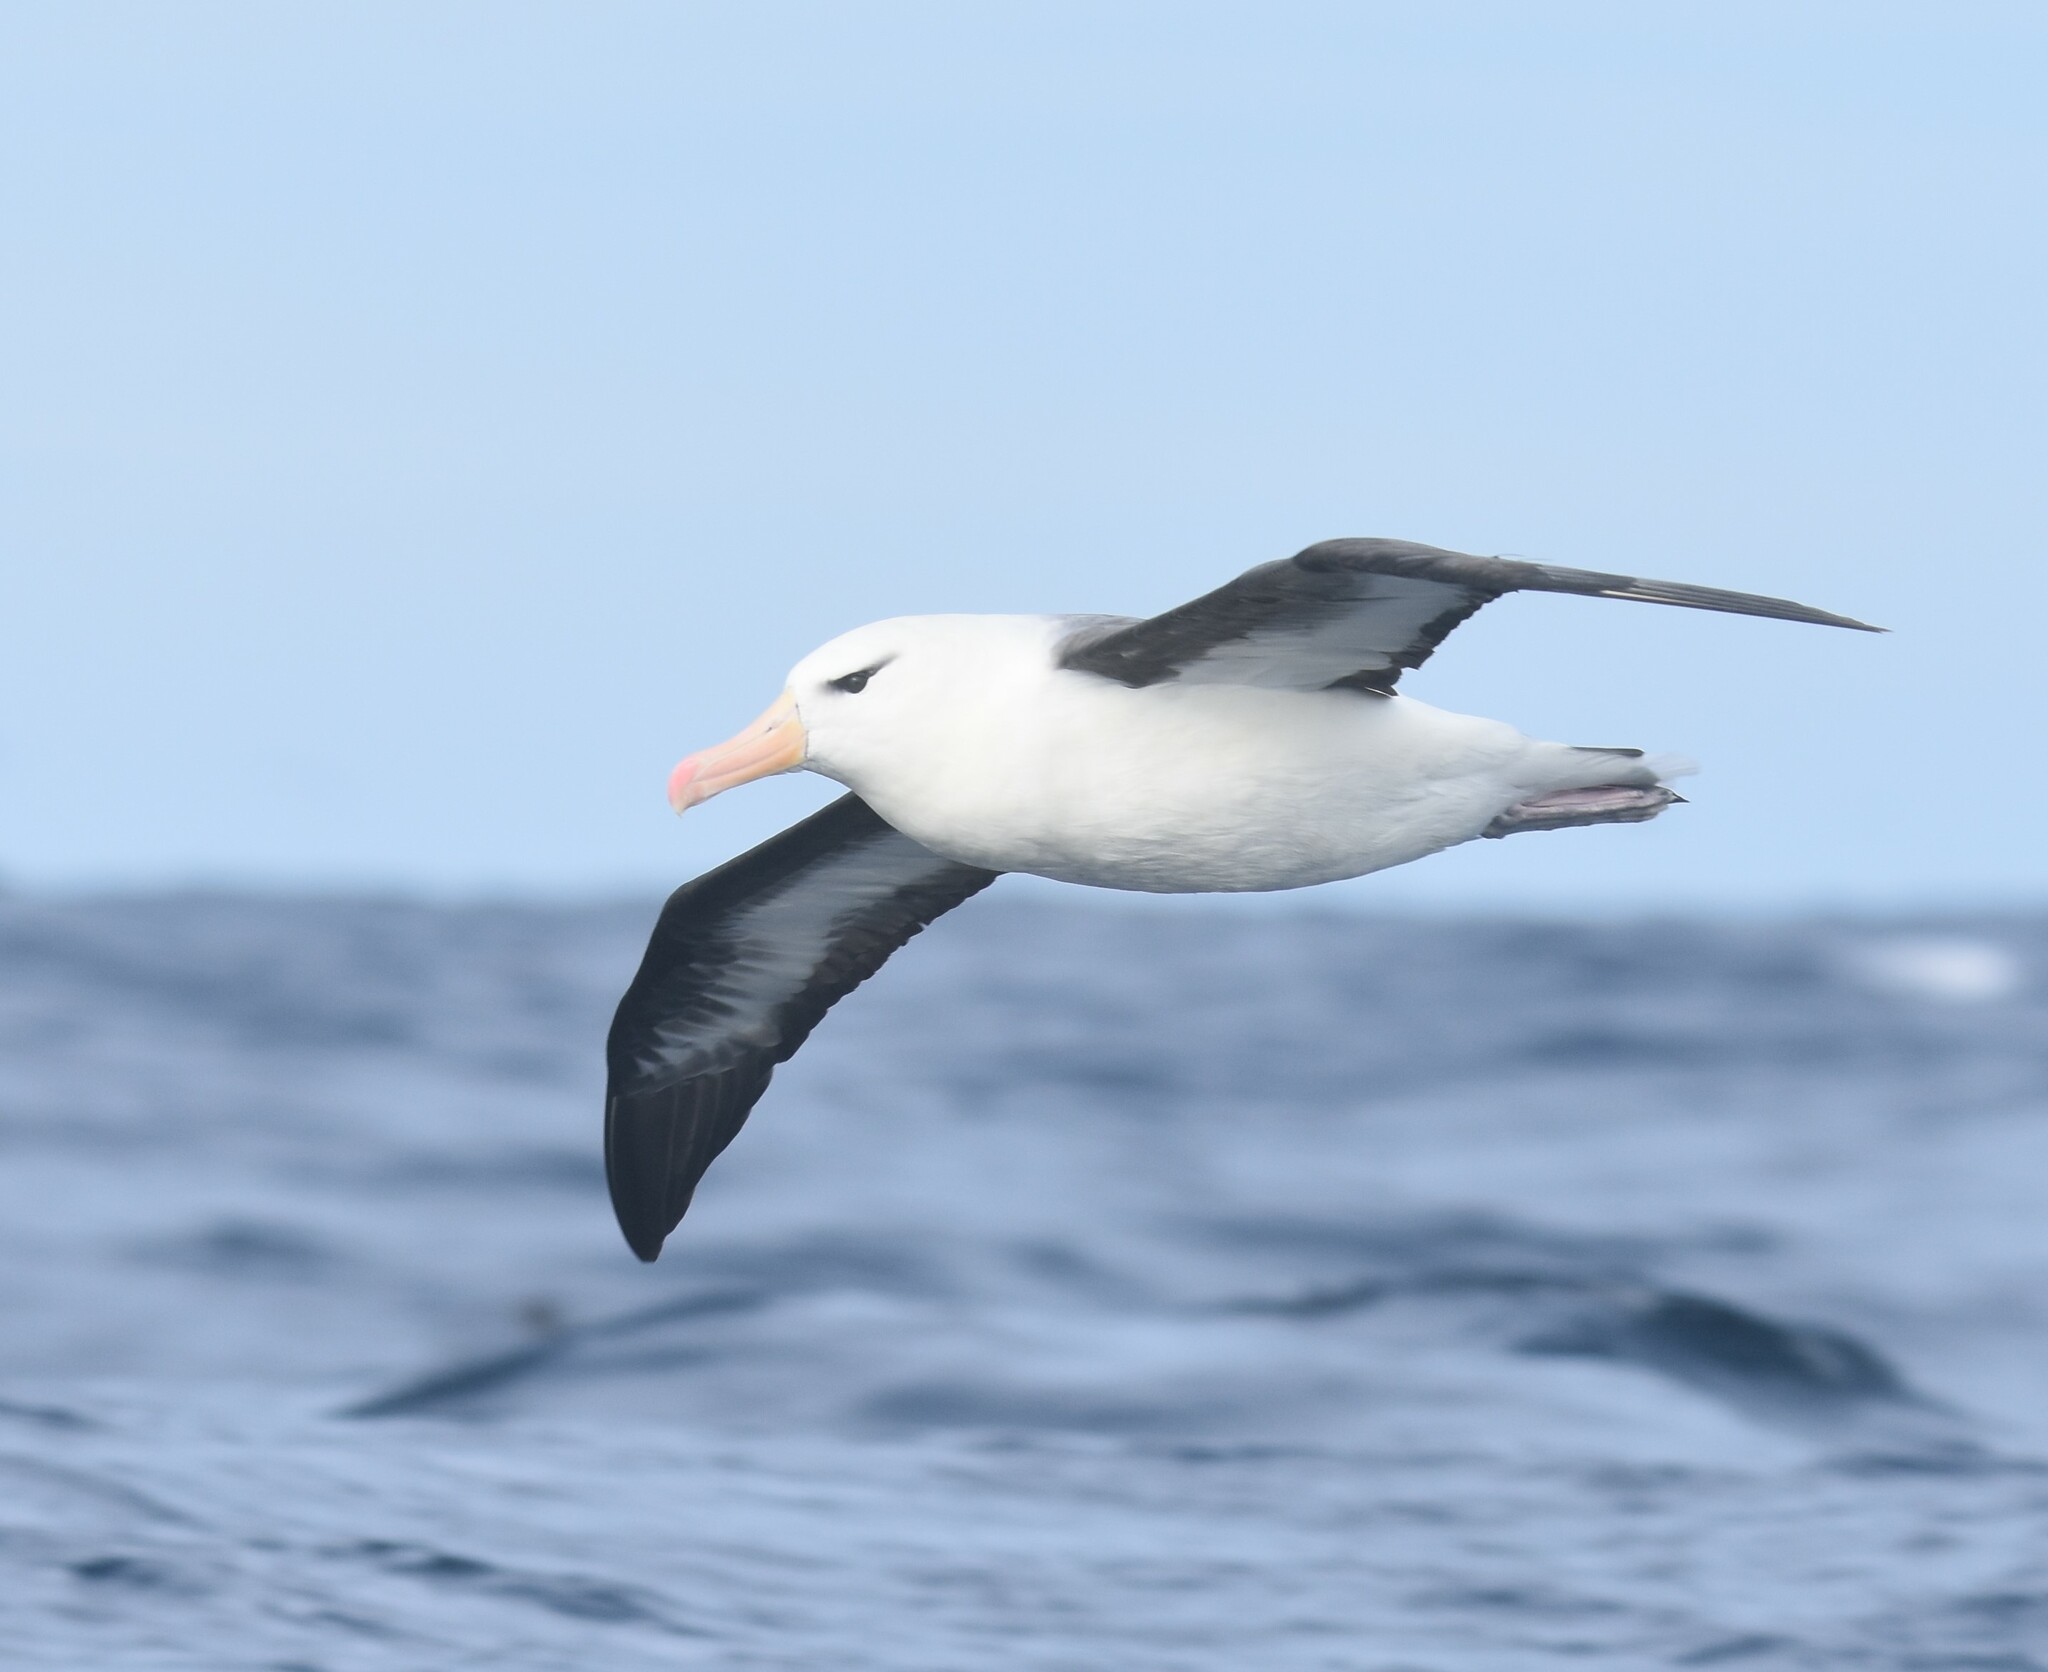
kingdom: Animalia
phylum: Chordata
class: Aves
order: Procellariiformes
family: Diomedeidae
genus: Thalassarche
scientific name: Thalassarche melanophris
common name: Black-browed albatross
